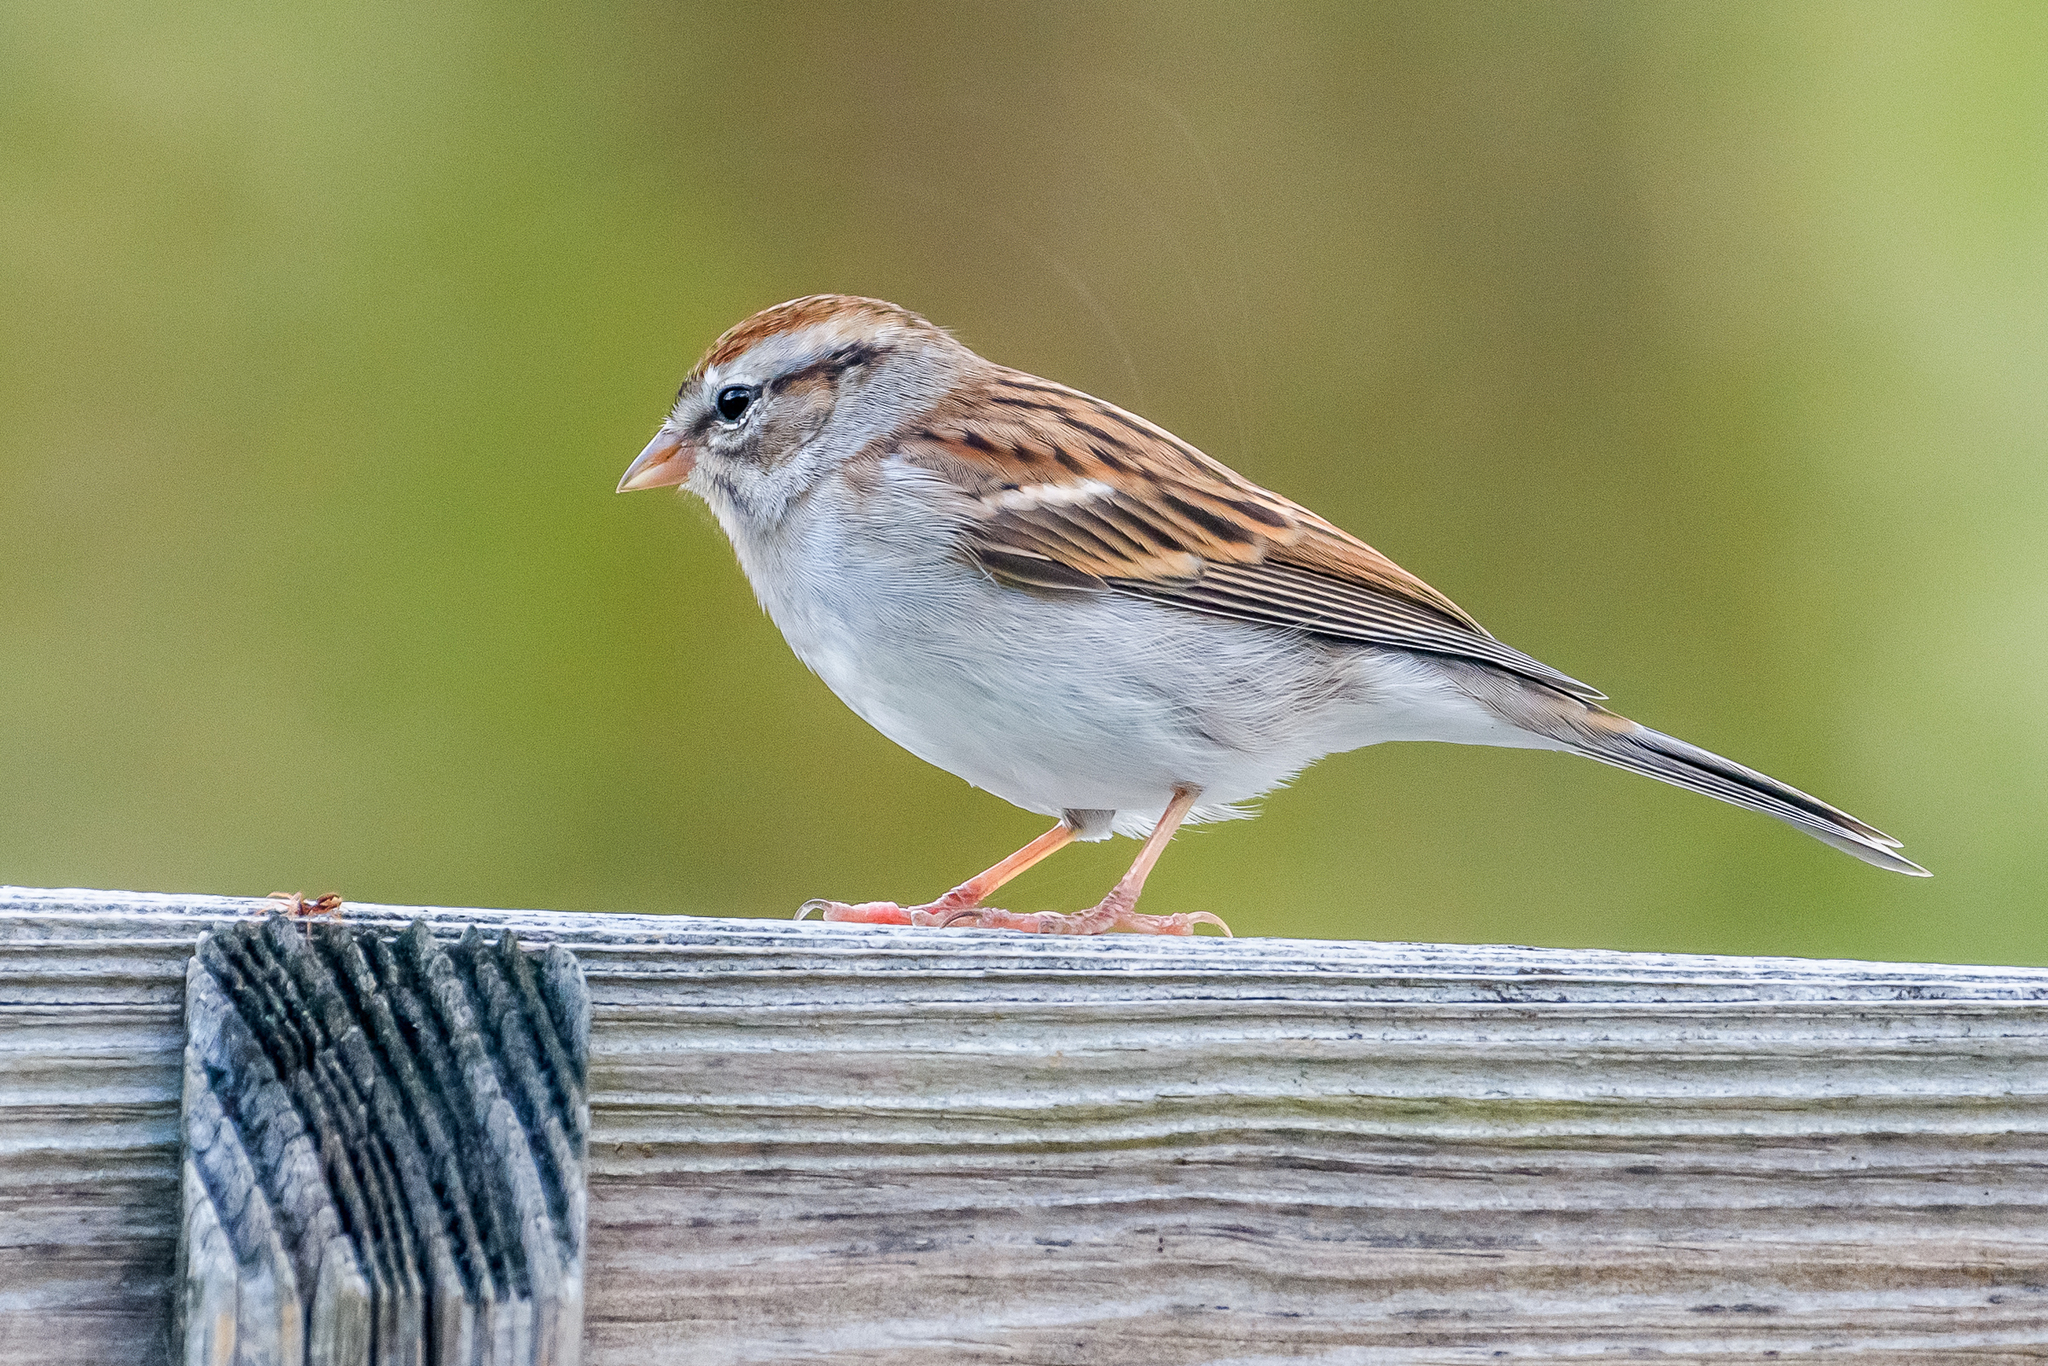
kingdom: Animalia
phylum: Chordata
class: Aves
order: Passeriformes
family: Passerellidae
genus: Spizella
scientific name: Spizella passerina
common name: Chipping sparrow
